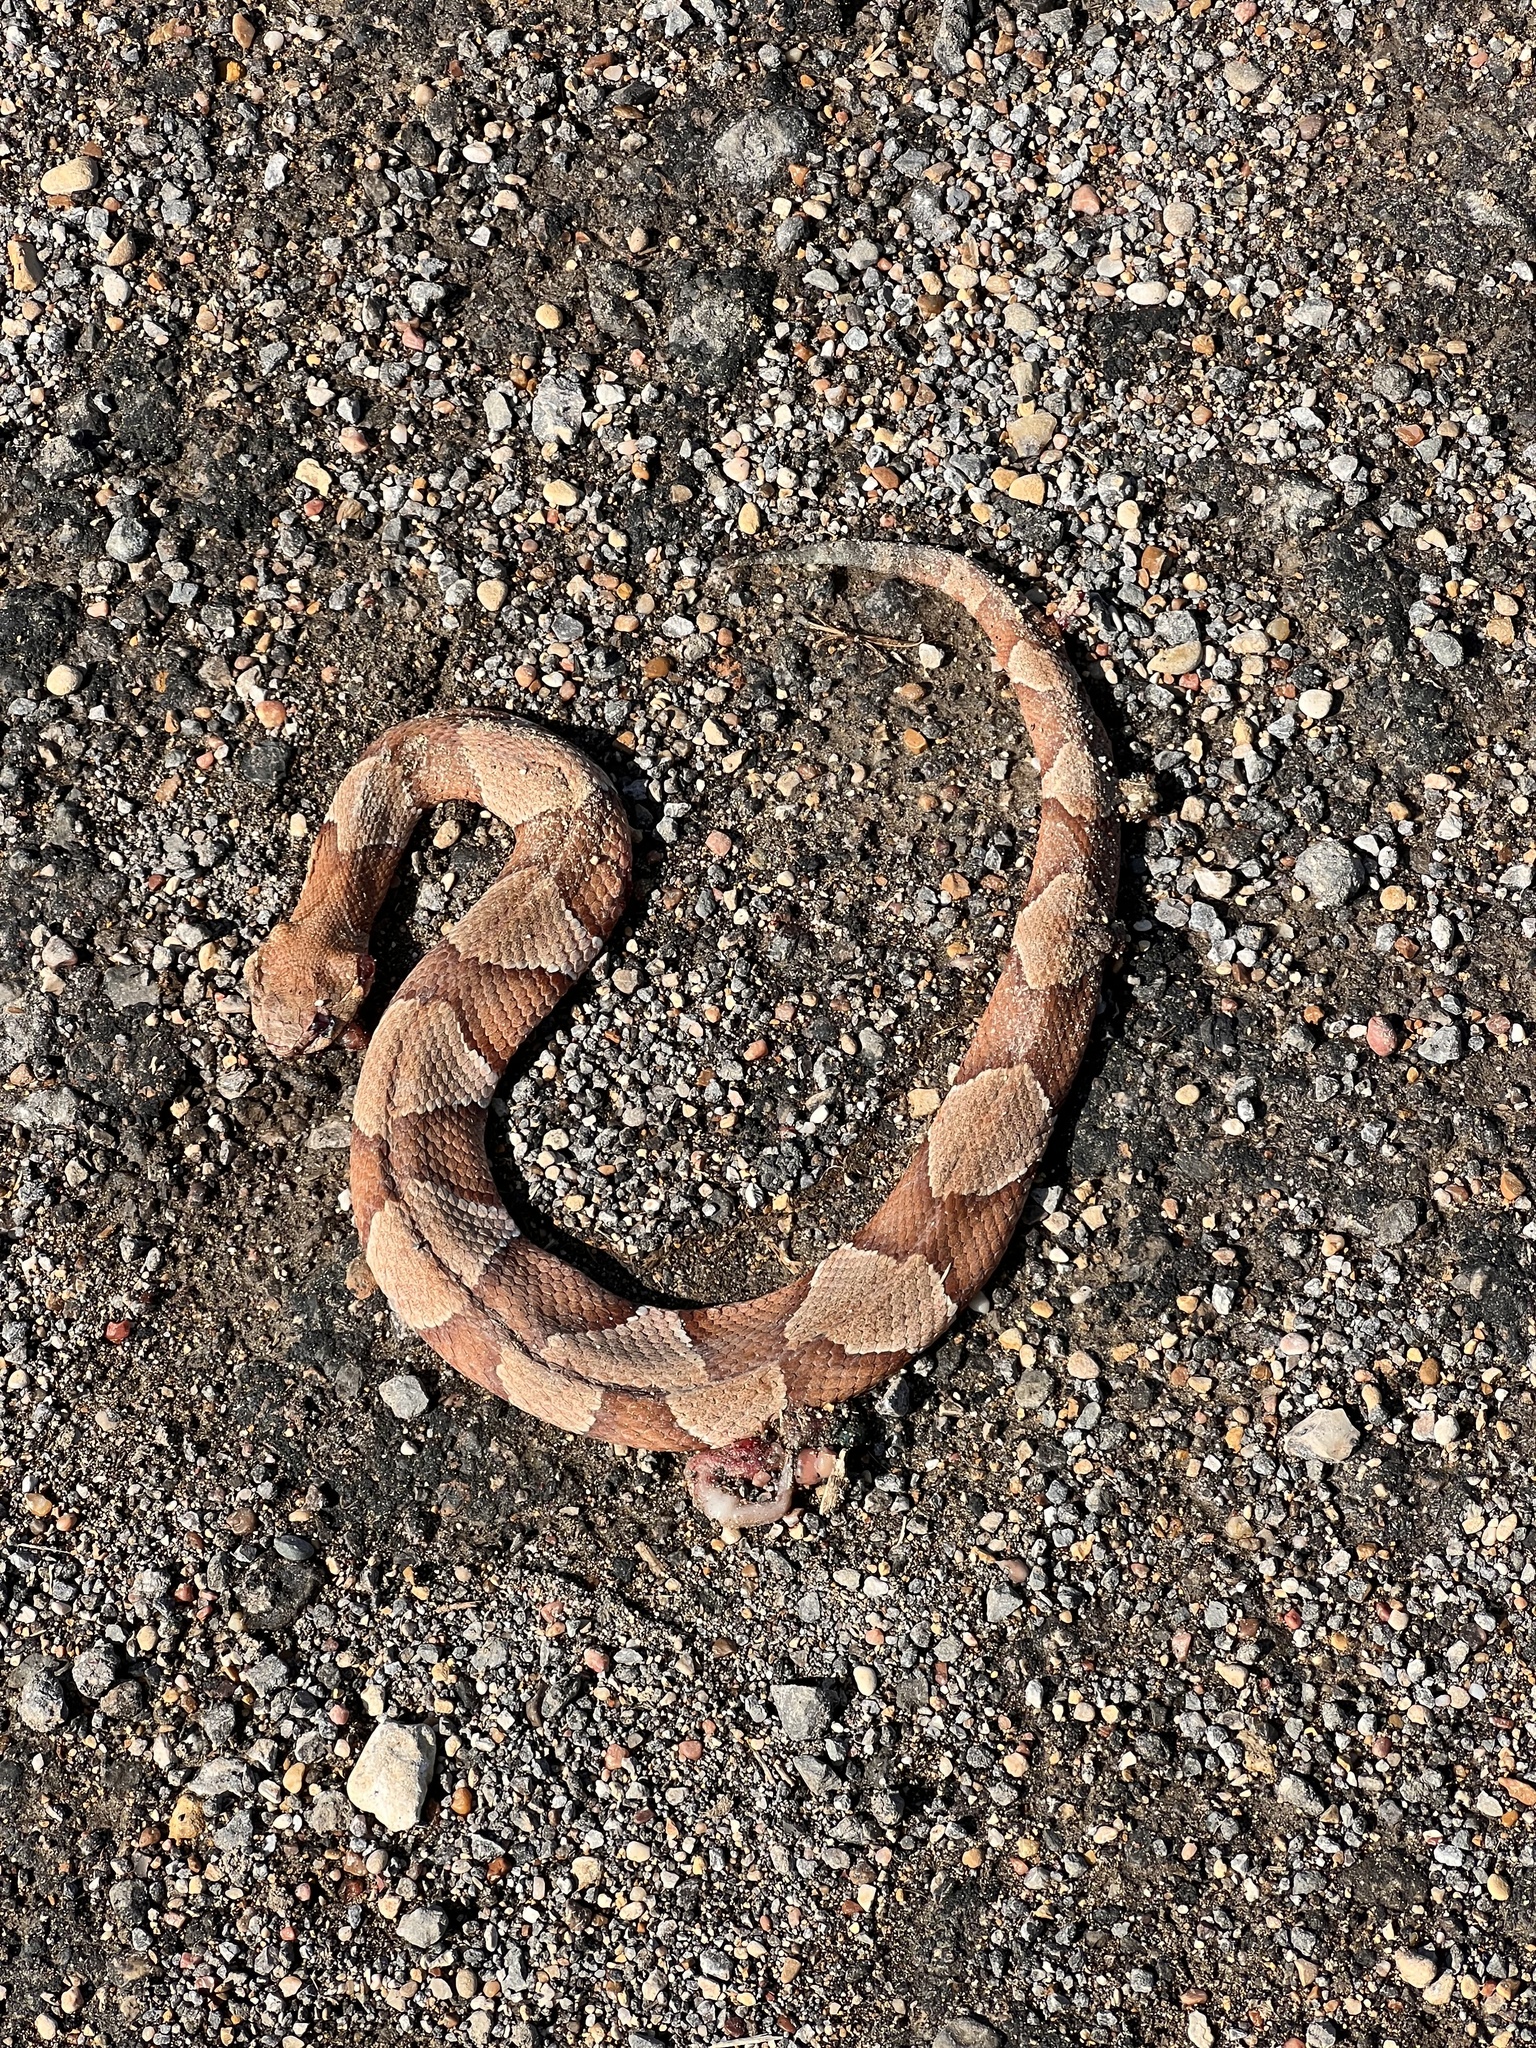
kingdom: Animalia
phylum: Chordata
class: Squamata
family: Viperidae
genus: Agkistrodon
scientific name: Agkistrodon laticinctus
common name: Broad-banded copperhead
